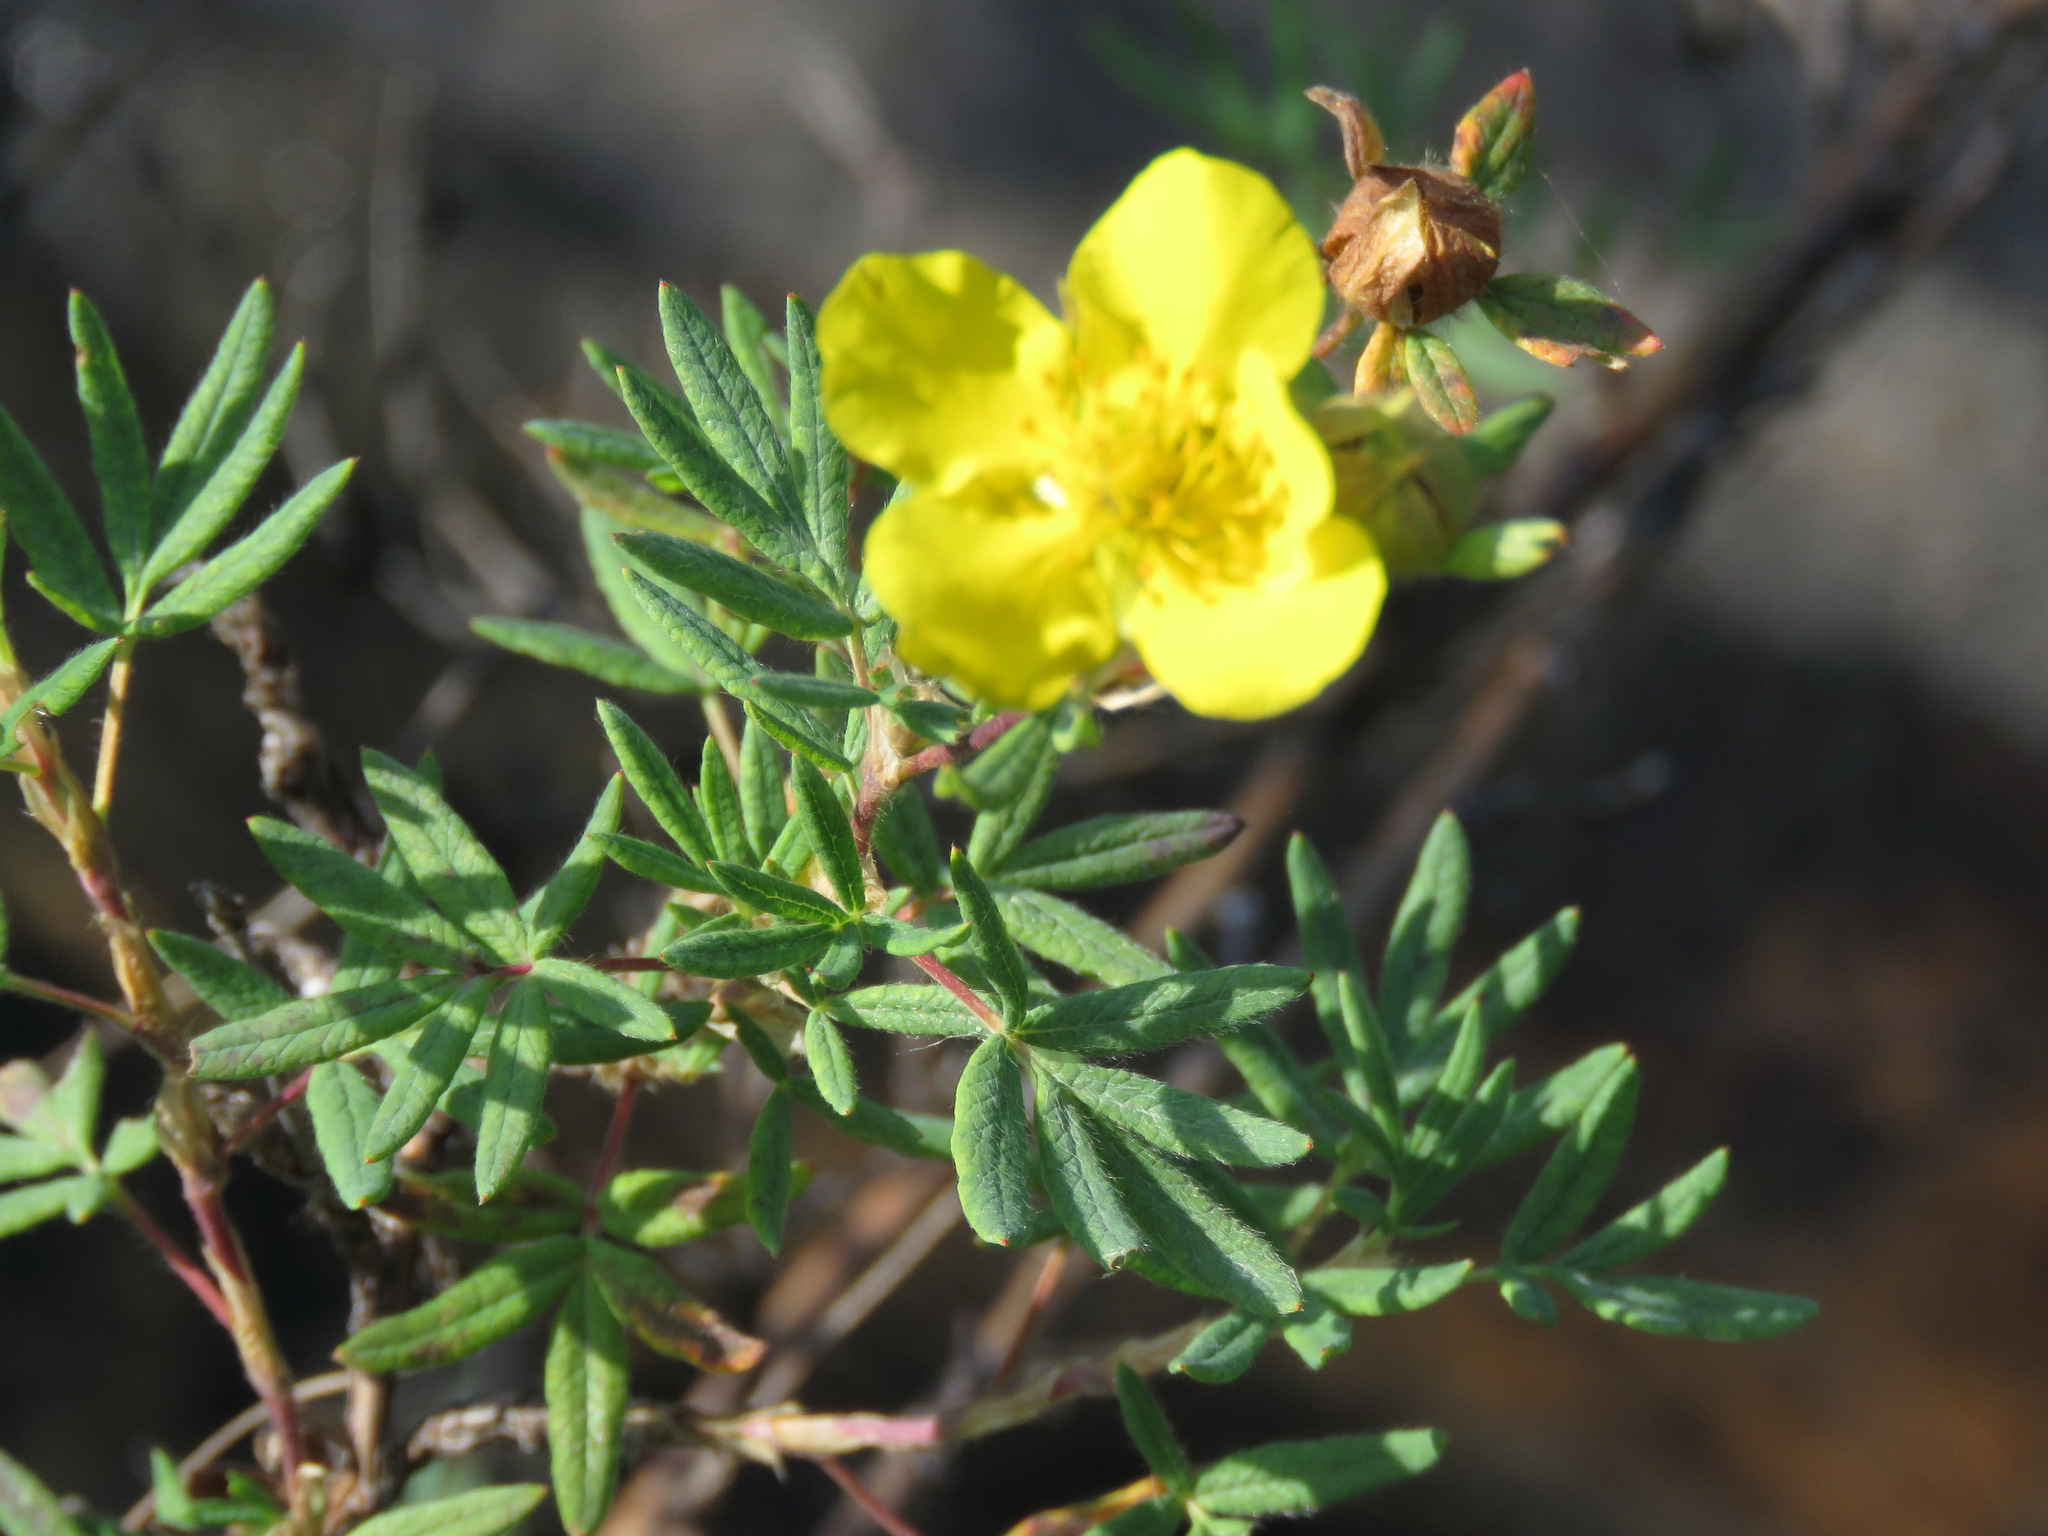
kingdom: Plantae
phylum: Tracheophyta
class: Magnoliopsida
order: Rosales
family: Rosaceae
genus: Dasiphora
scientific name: Dasiphora fruticosa
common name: Shrubby cinquefoil
